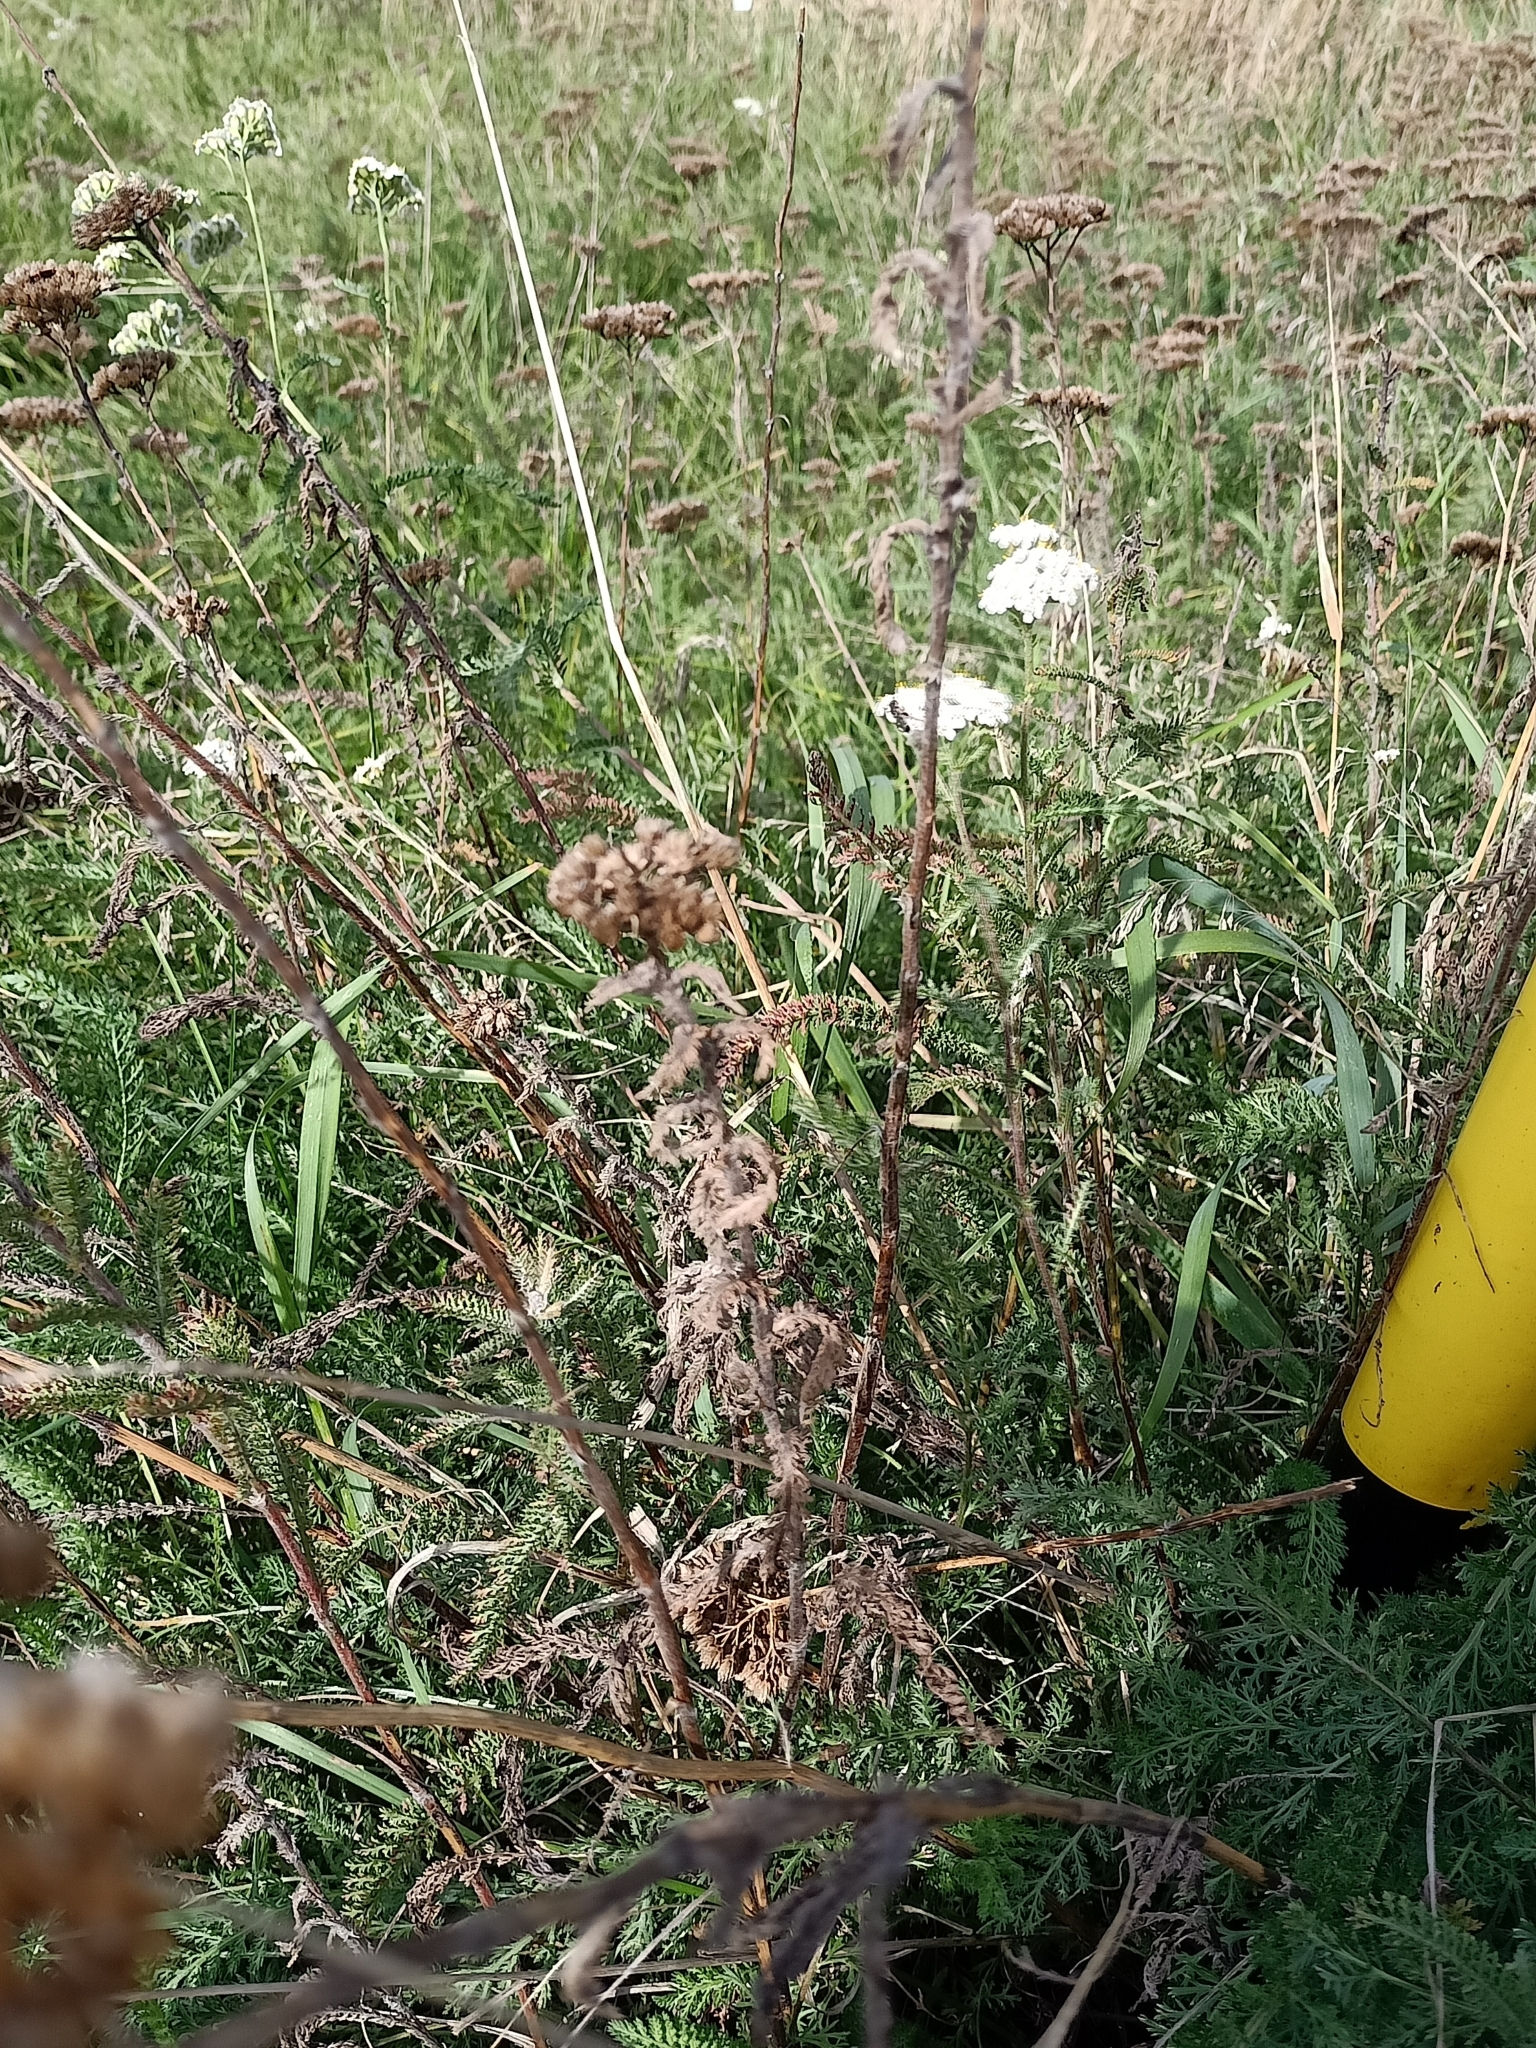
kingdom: Plantae
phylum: Tracheophyta
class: Magnoliopsida
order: Asterales
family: Asteraceae
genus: Achillea
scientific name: Achillea millefolium
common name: Yarrow
